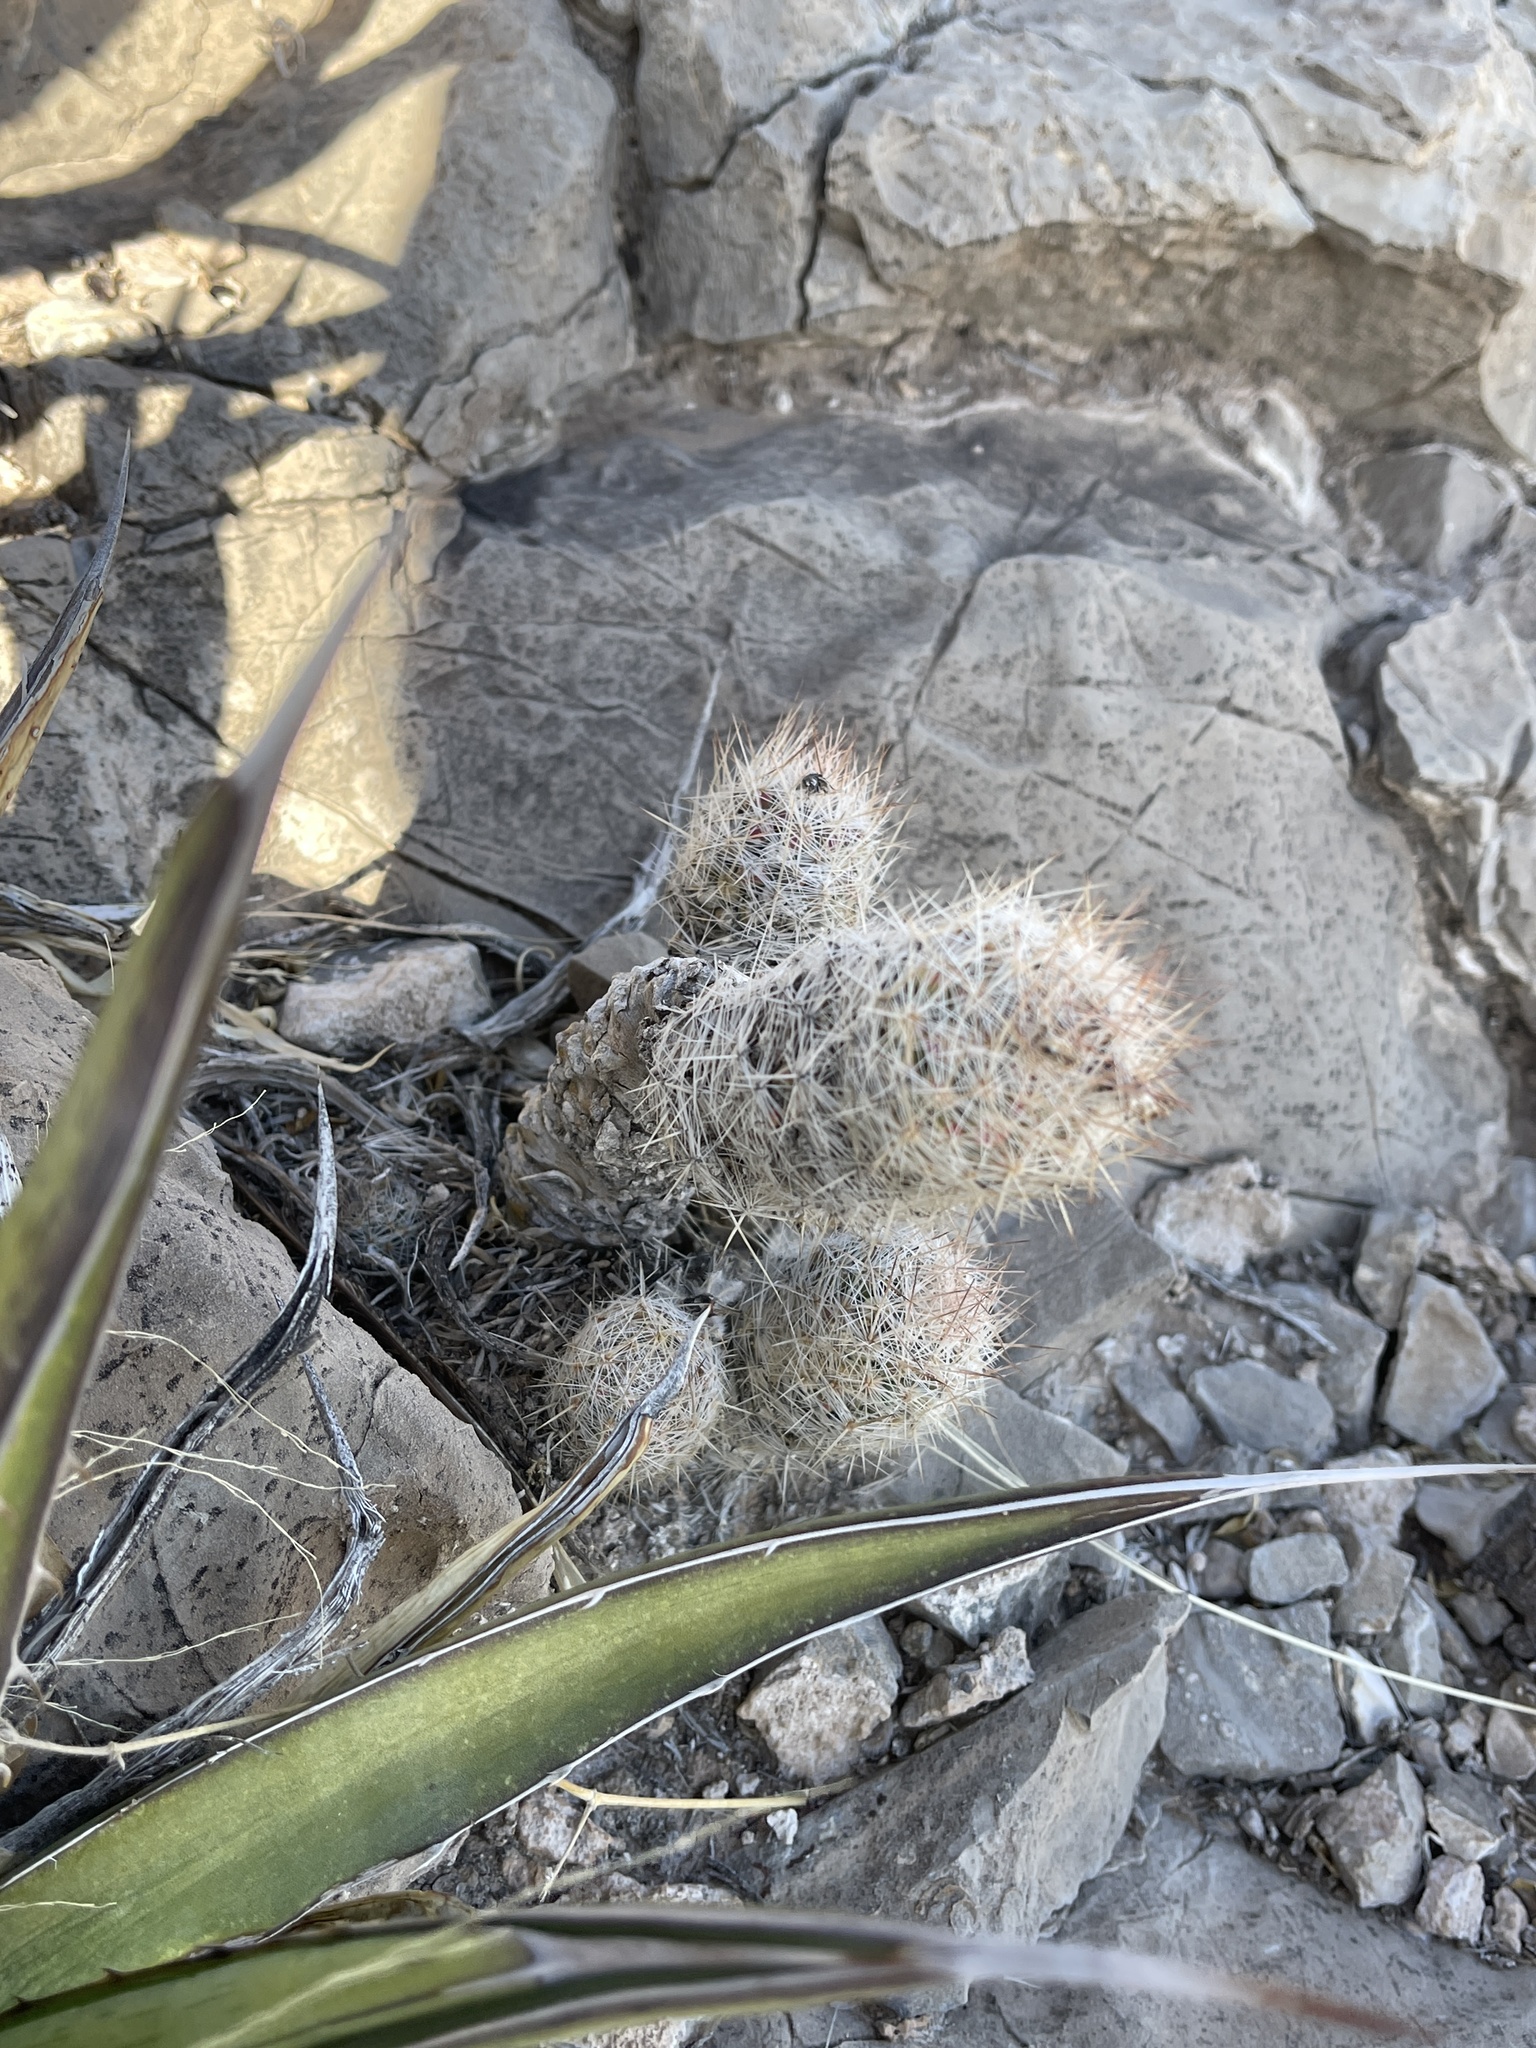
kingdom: Plantae
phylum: Tracheophyta
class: Magnoliopsida
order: Caryophyllales
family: Cactaceae
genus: Pelecyphora
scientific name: Pelecyphora tuberculosa
